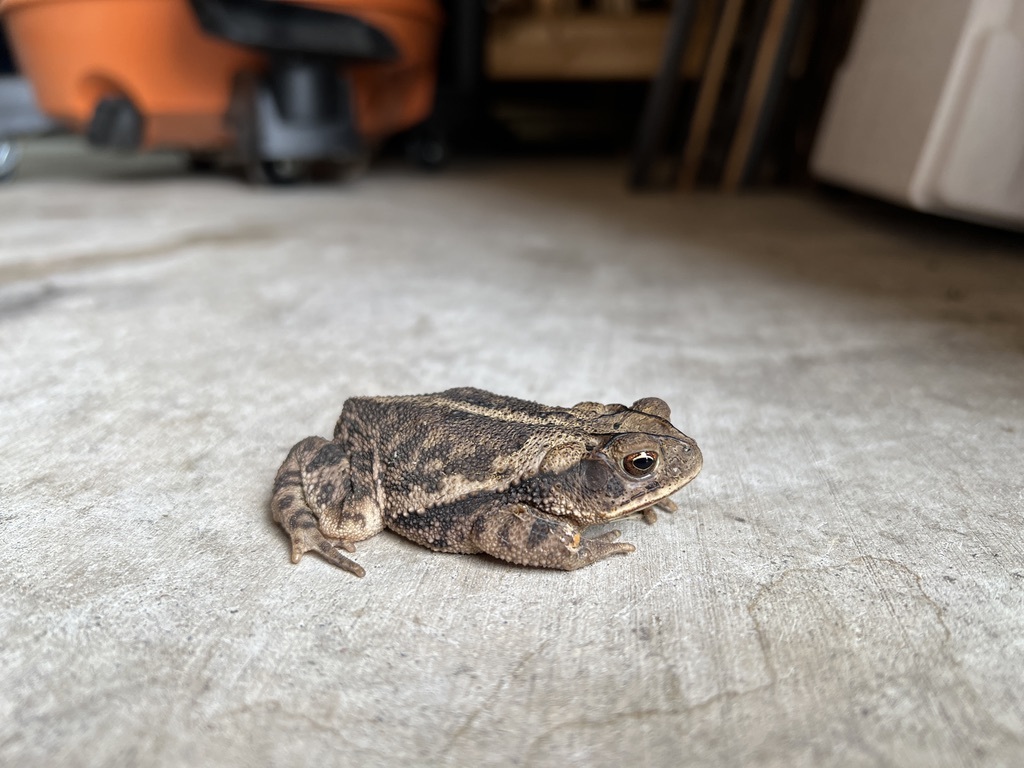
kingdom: Animalia
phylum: Chordata
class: Amphibia
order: Anura
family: Bufonidae
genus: Incilius
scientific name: Incilius nebulifer
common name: Gulf coast toad
